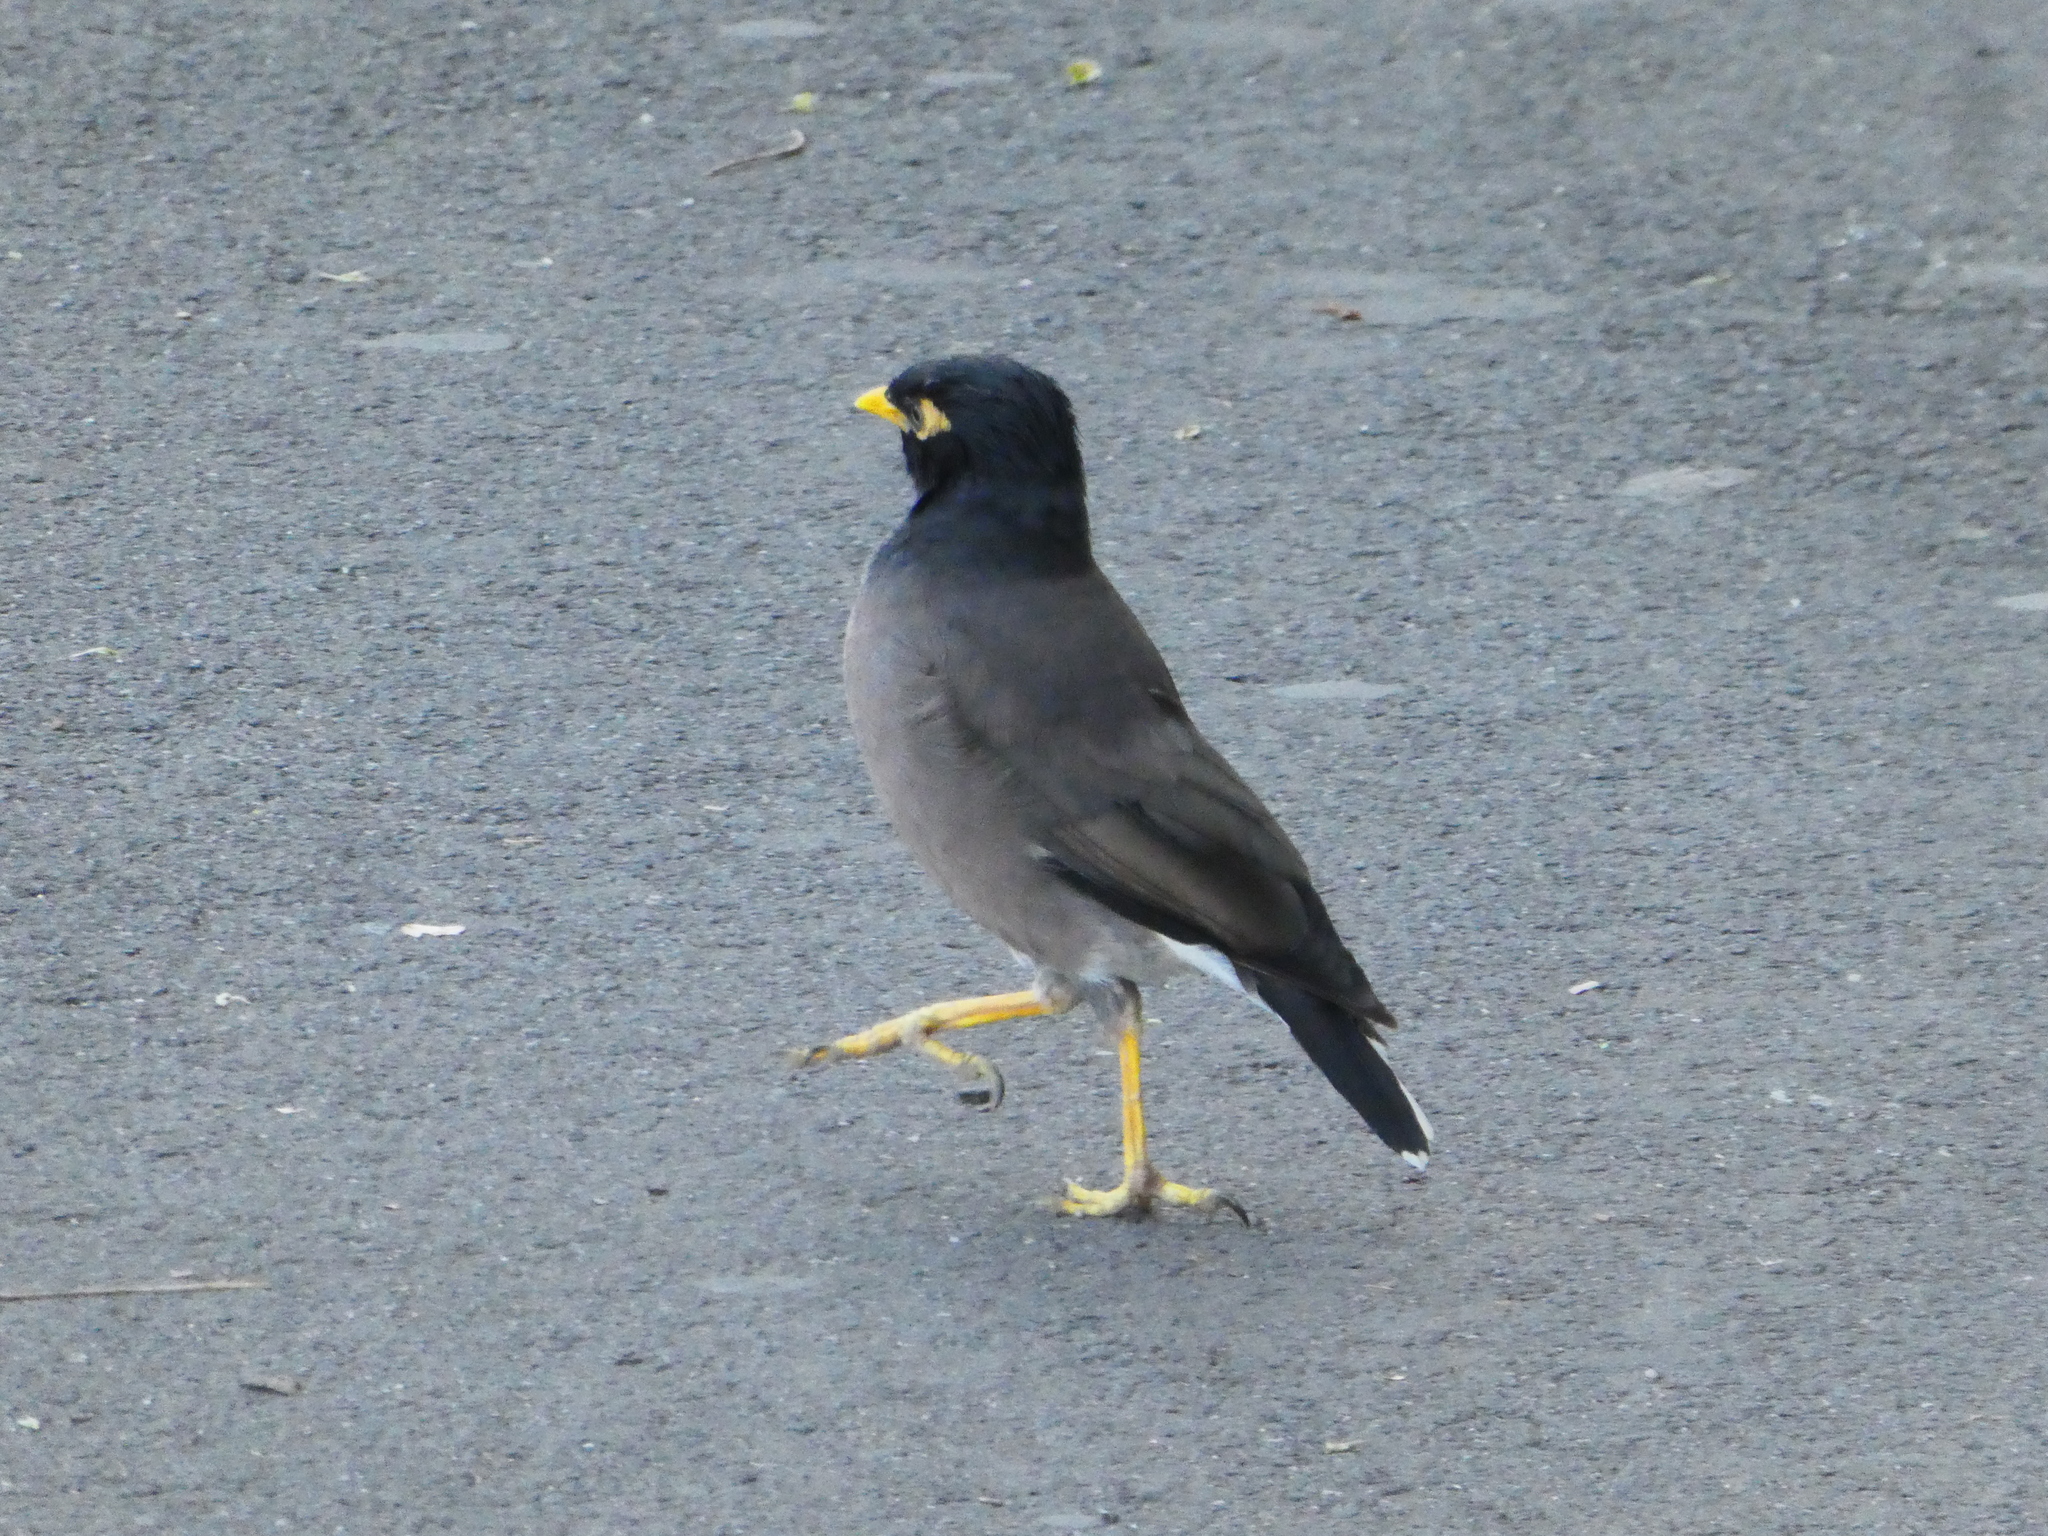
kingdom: Animalia
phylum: Chordata
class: Aves
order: Passeriformes
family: Sturnidae
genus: Acridotheres
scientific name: Acridotheres tristis
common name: Common myna
